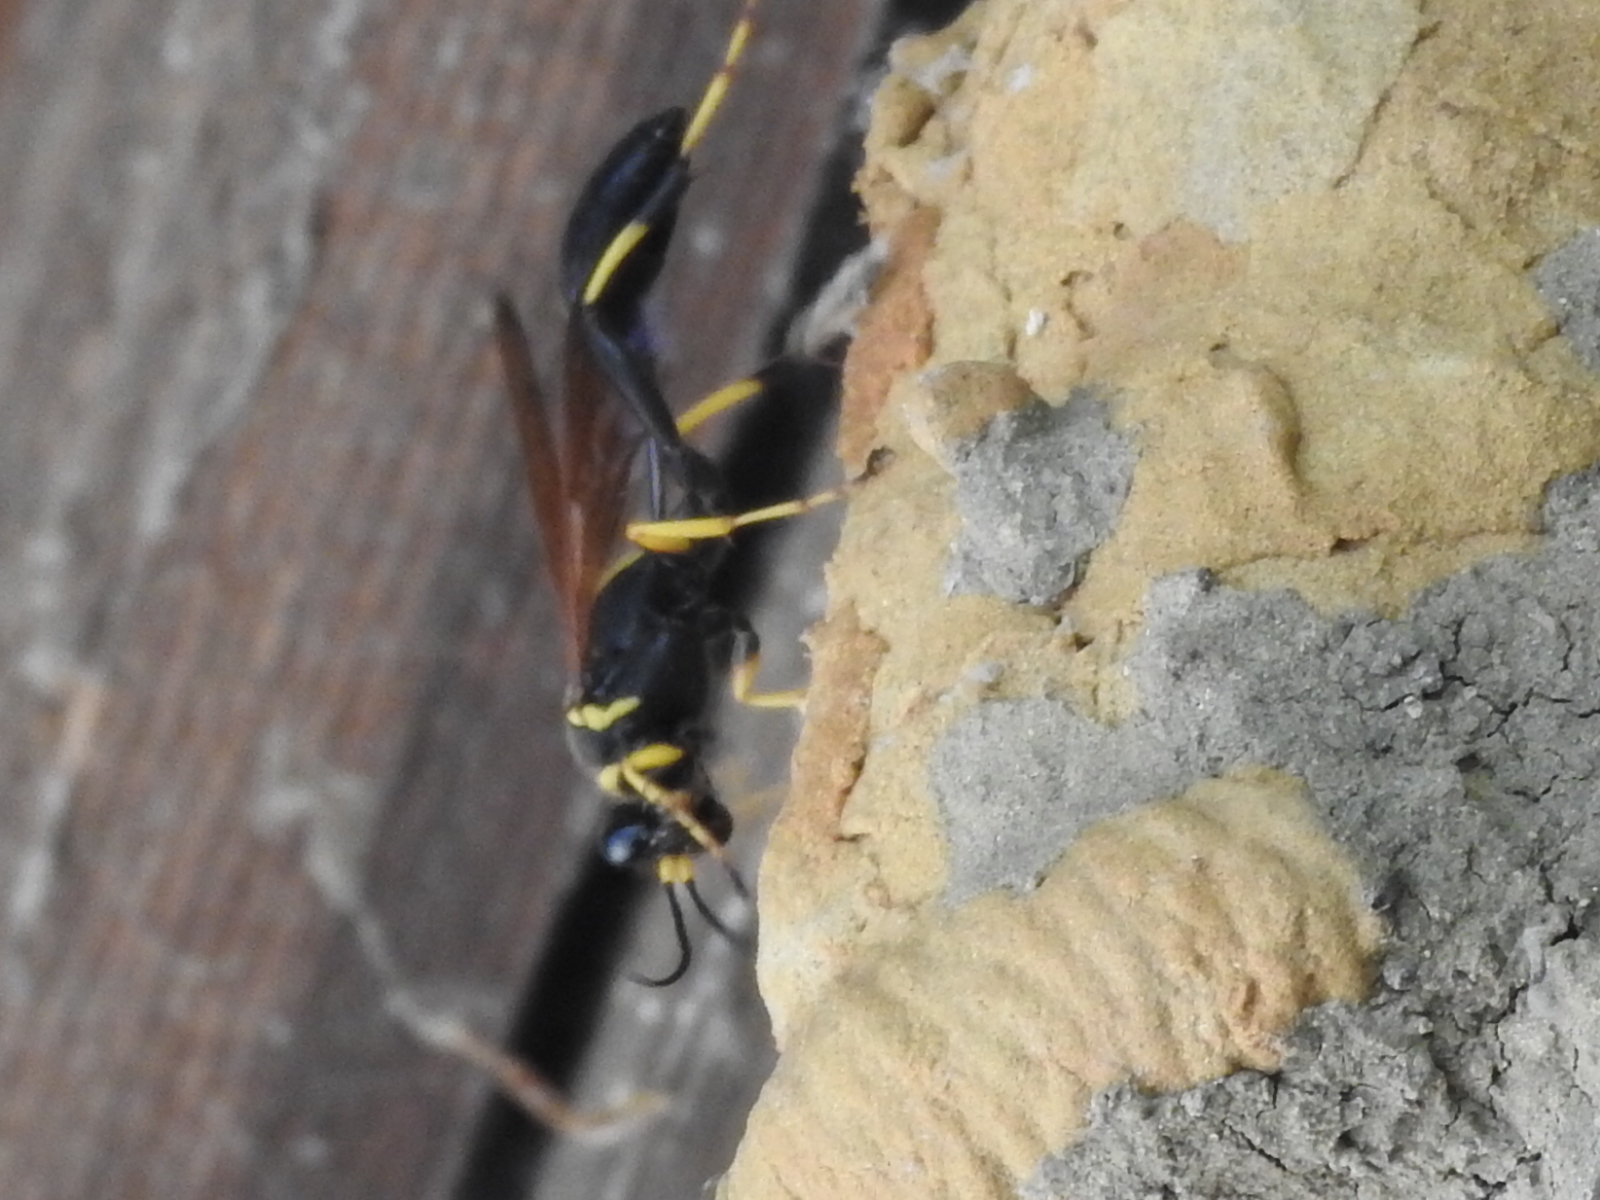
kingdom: Animalia
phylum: Arthropoda
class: Insecta
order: Hymenoptera
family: Sphecidae
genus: Sceliphron
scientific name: Sceliphron caementarium
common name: Mud dauber
